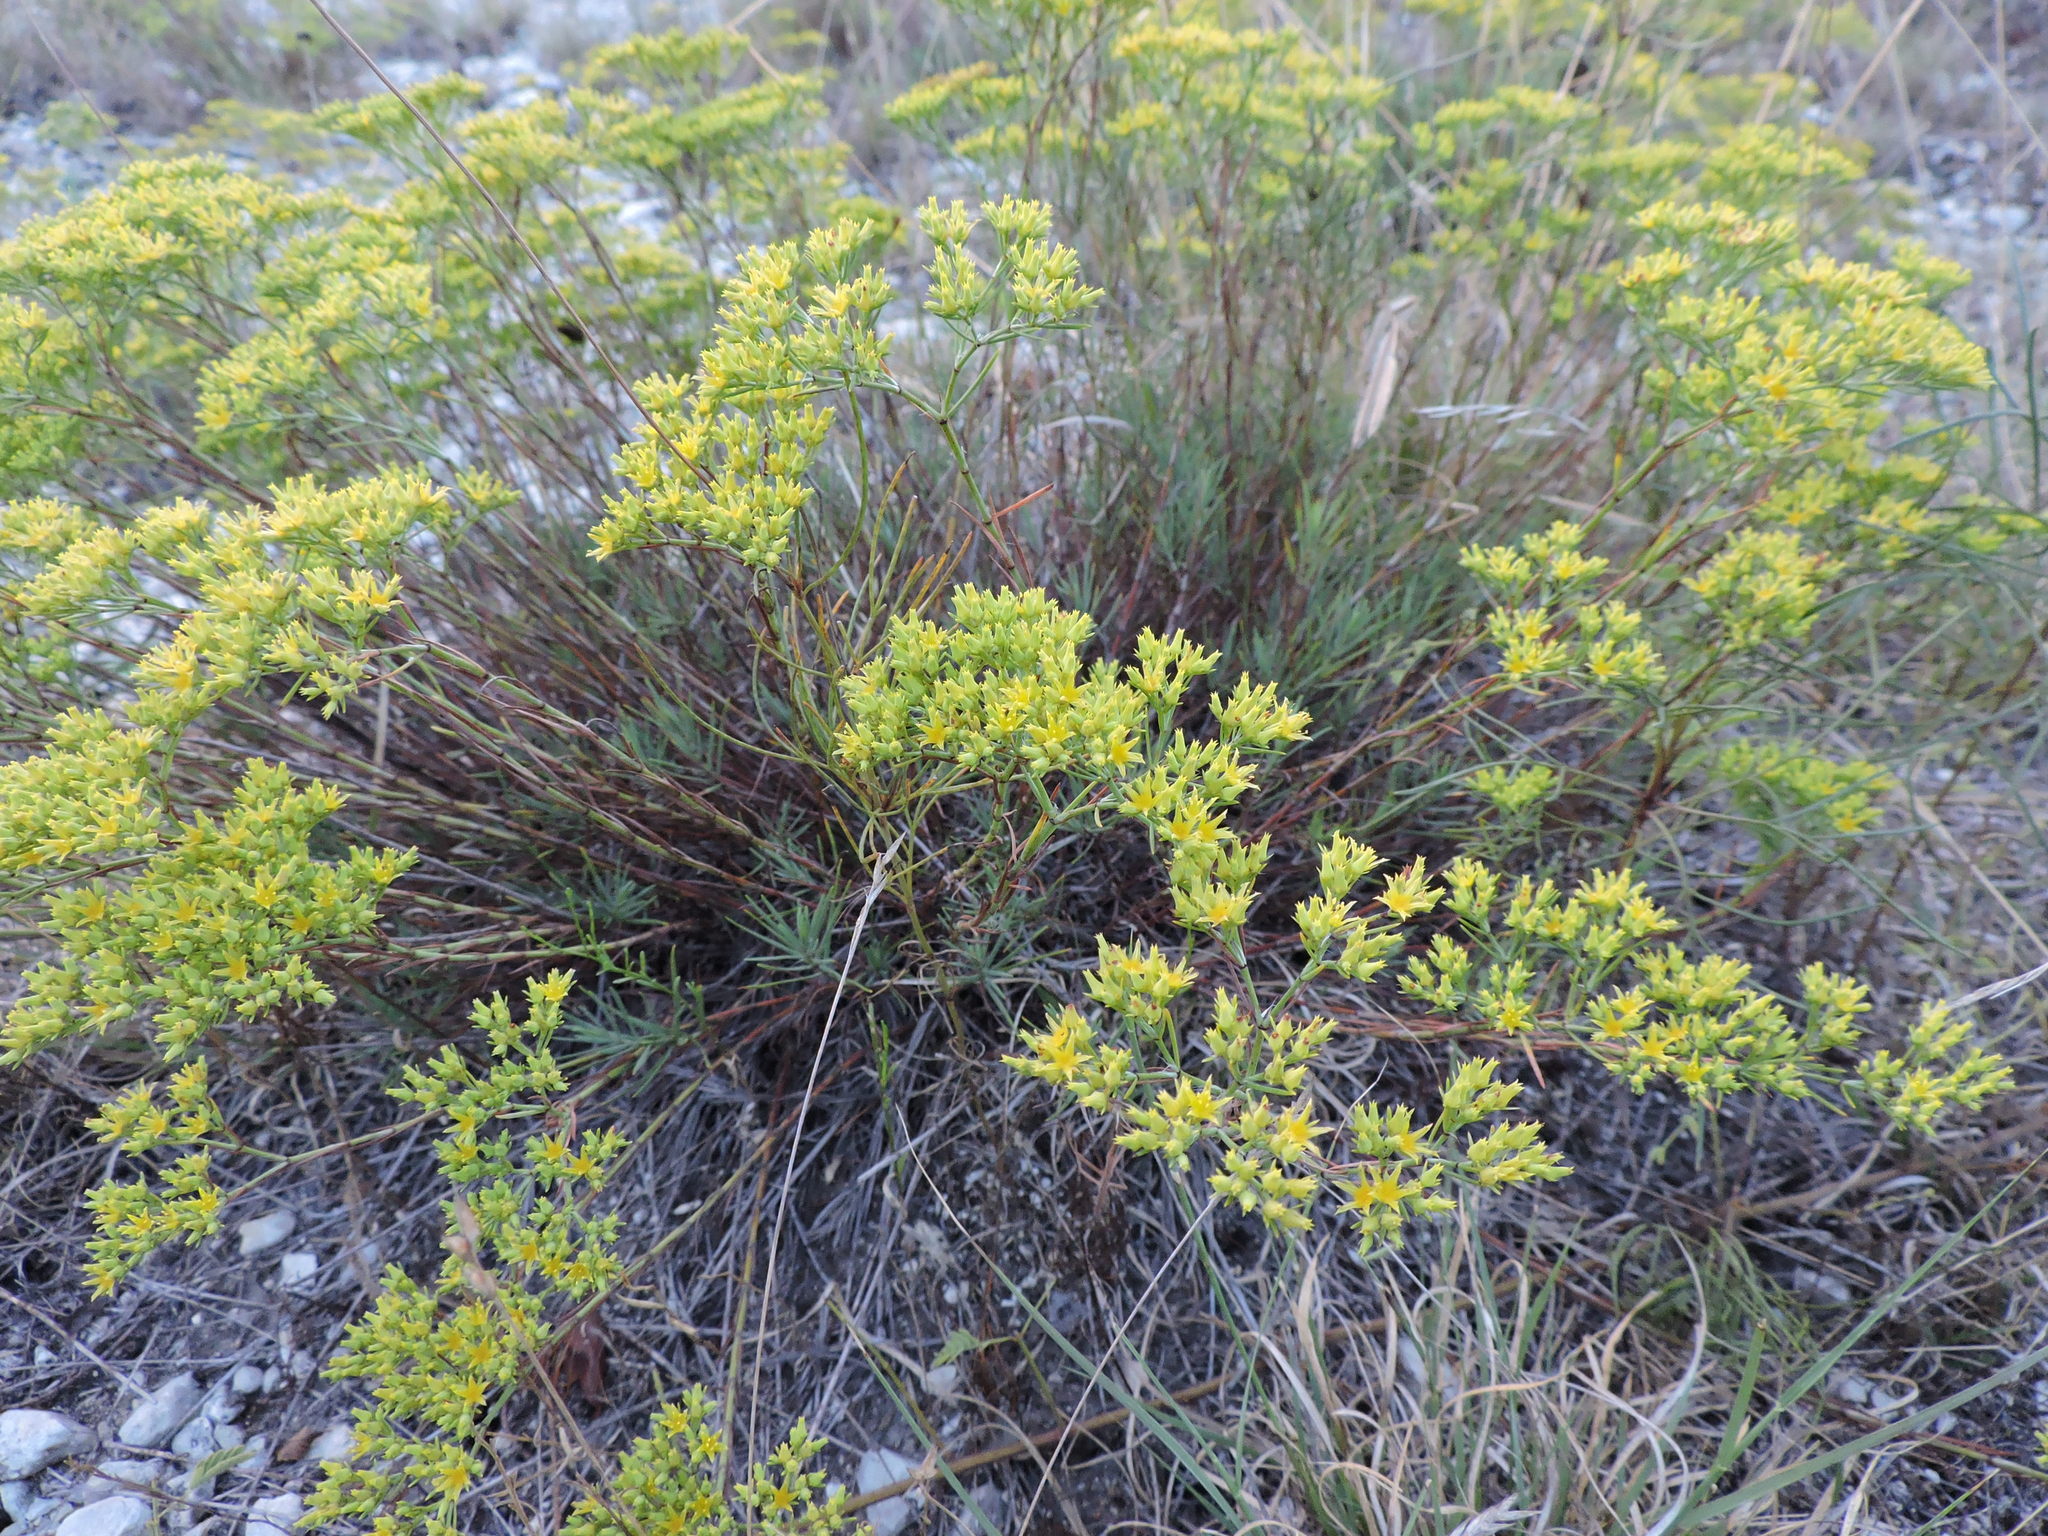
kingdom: Plantae
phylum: Tracheophyta
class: Magnoliopsida
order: Caryophyllales
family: Caryophyllaceae
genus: Paronychia
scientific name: Paronychia virginica
